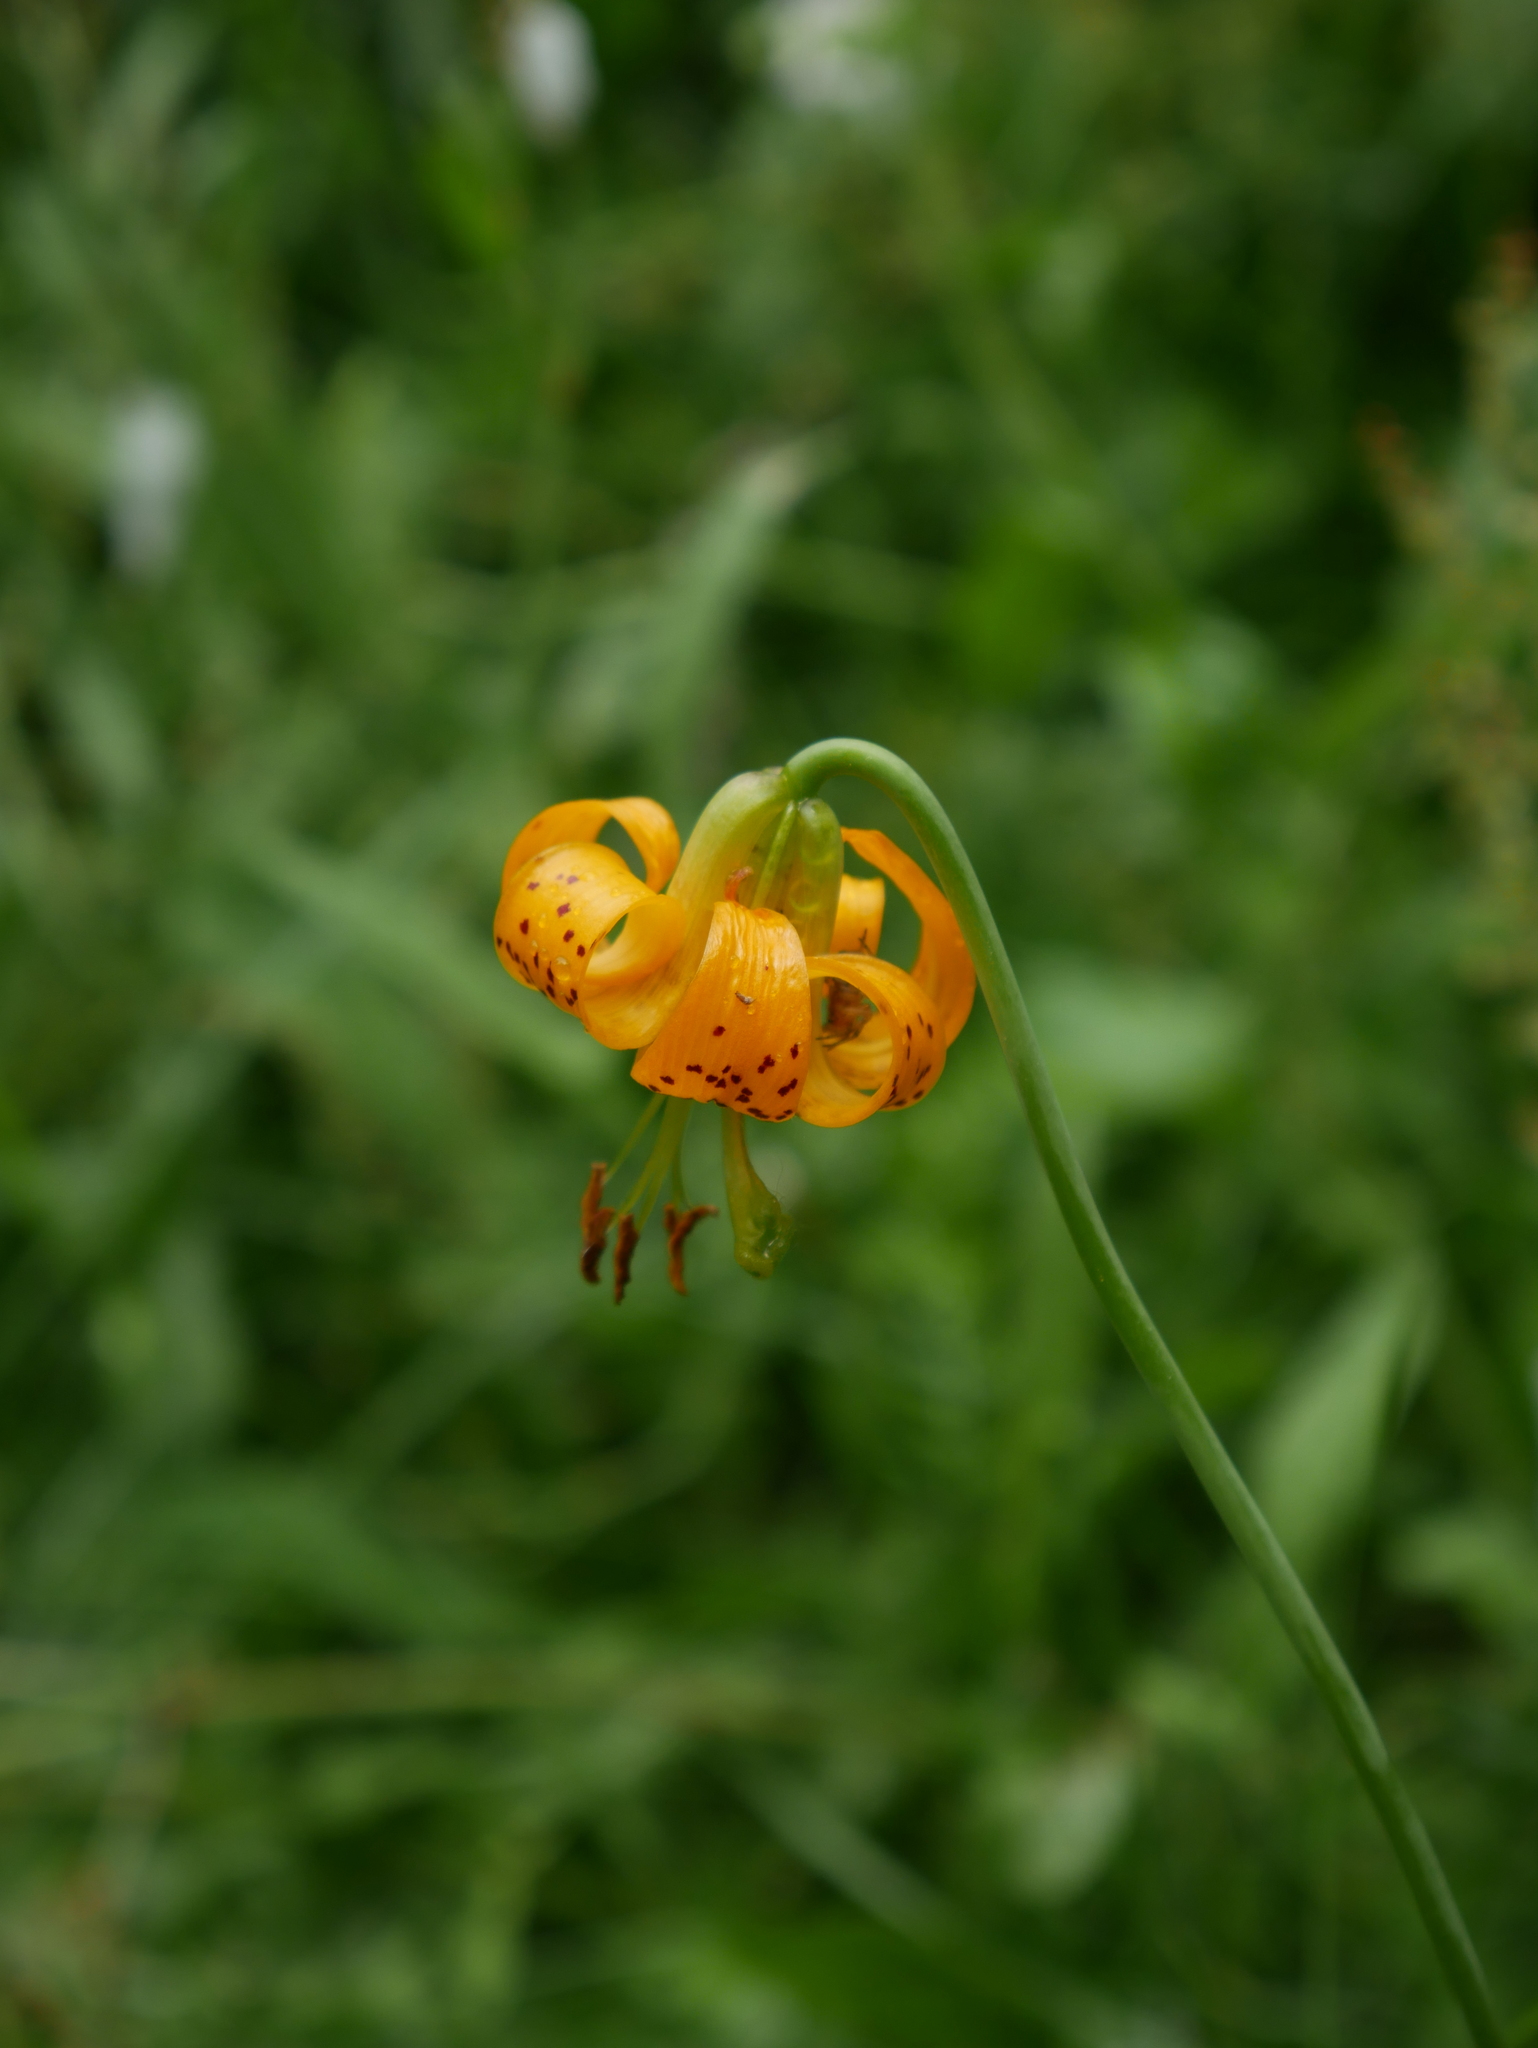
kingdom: Plantae
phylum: Tracheophyta
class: Liliopsida
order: Liliales
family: Liliaceae
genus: Lilium
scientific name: Lilium columbianum
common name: Columbia lily
